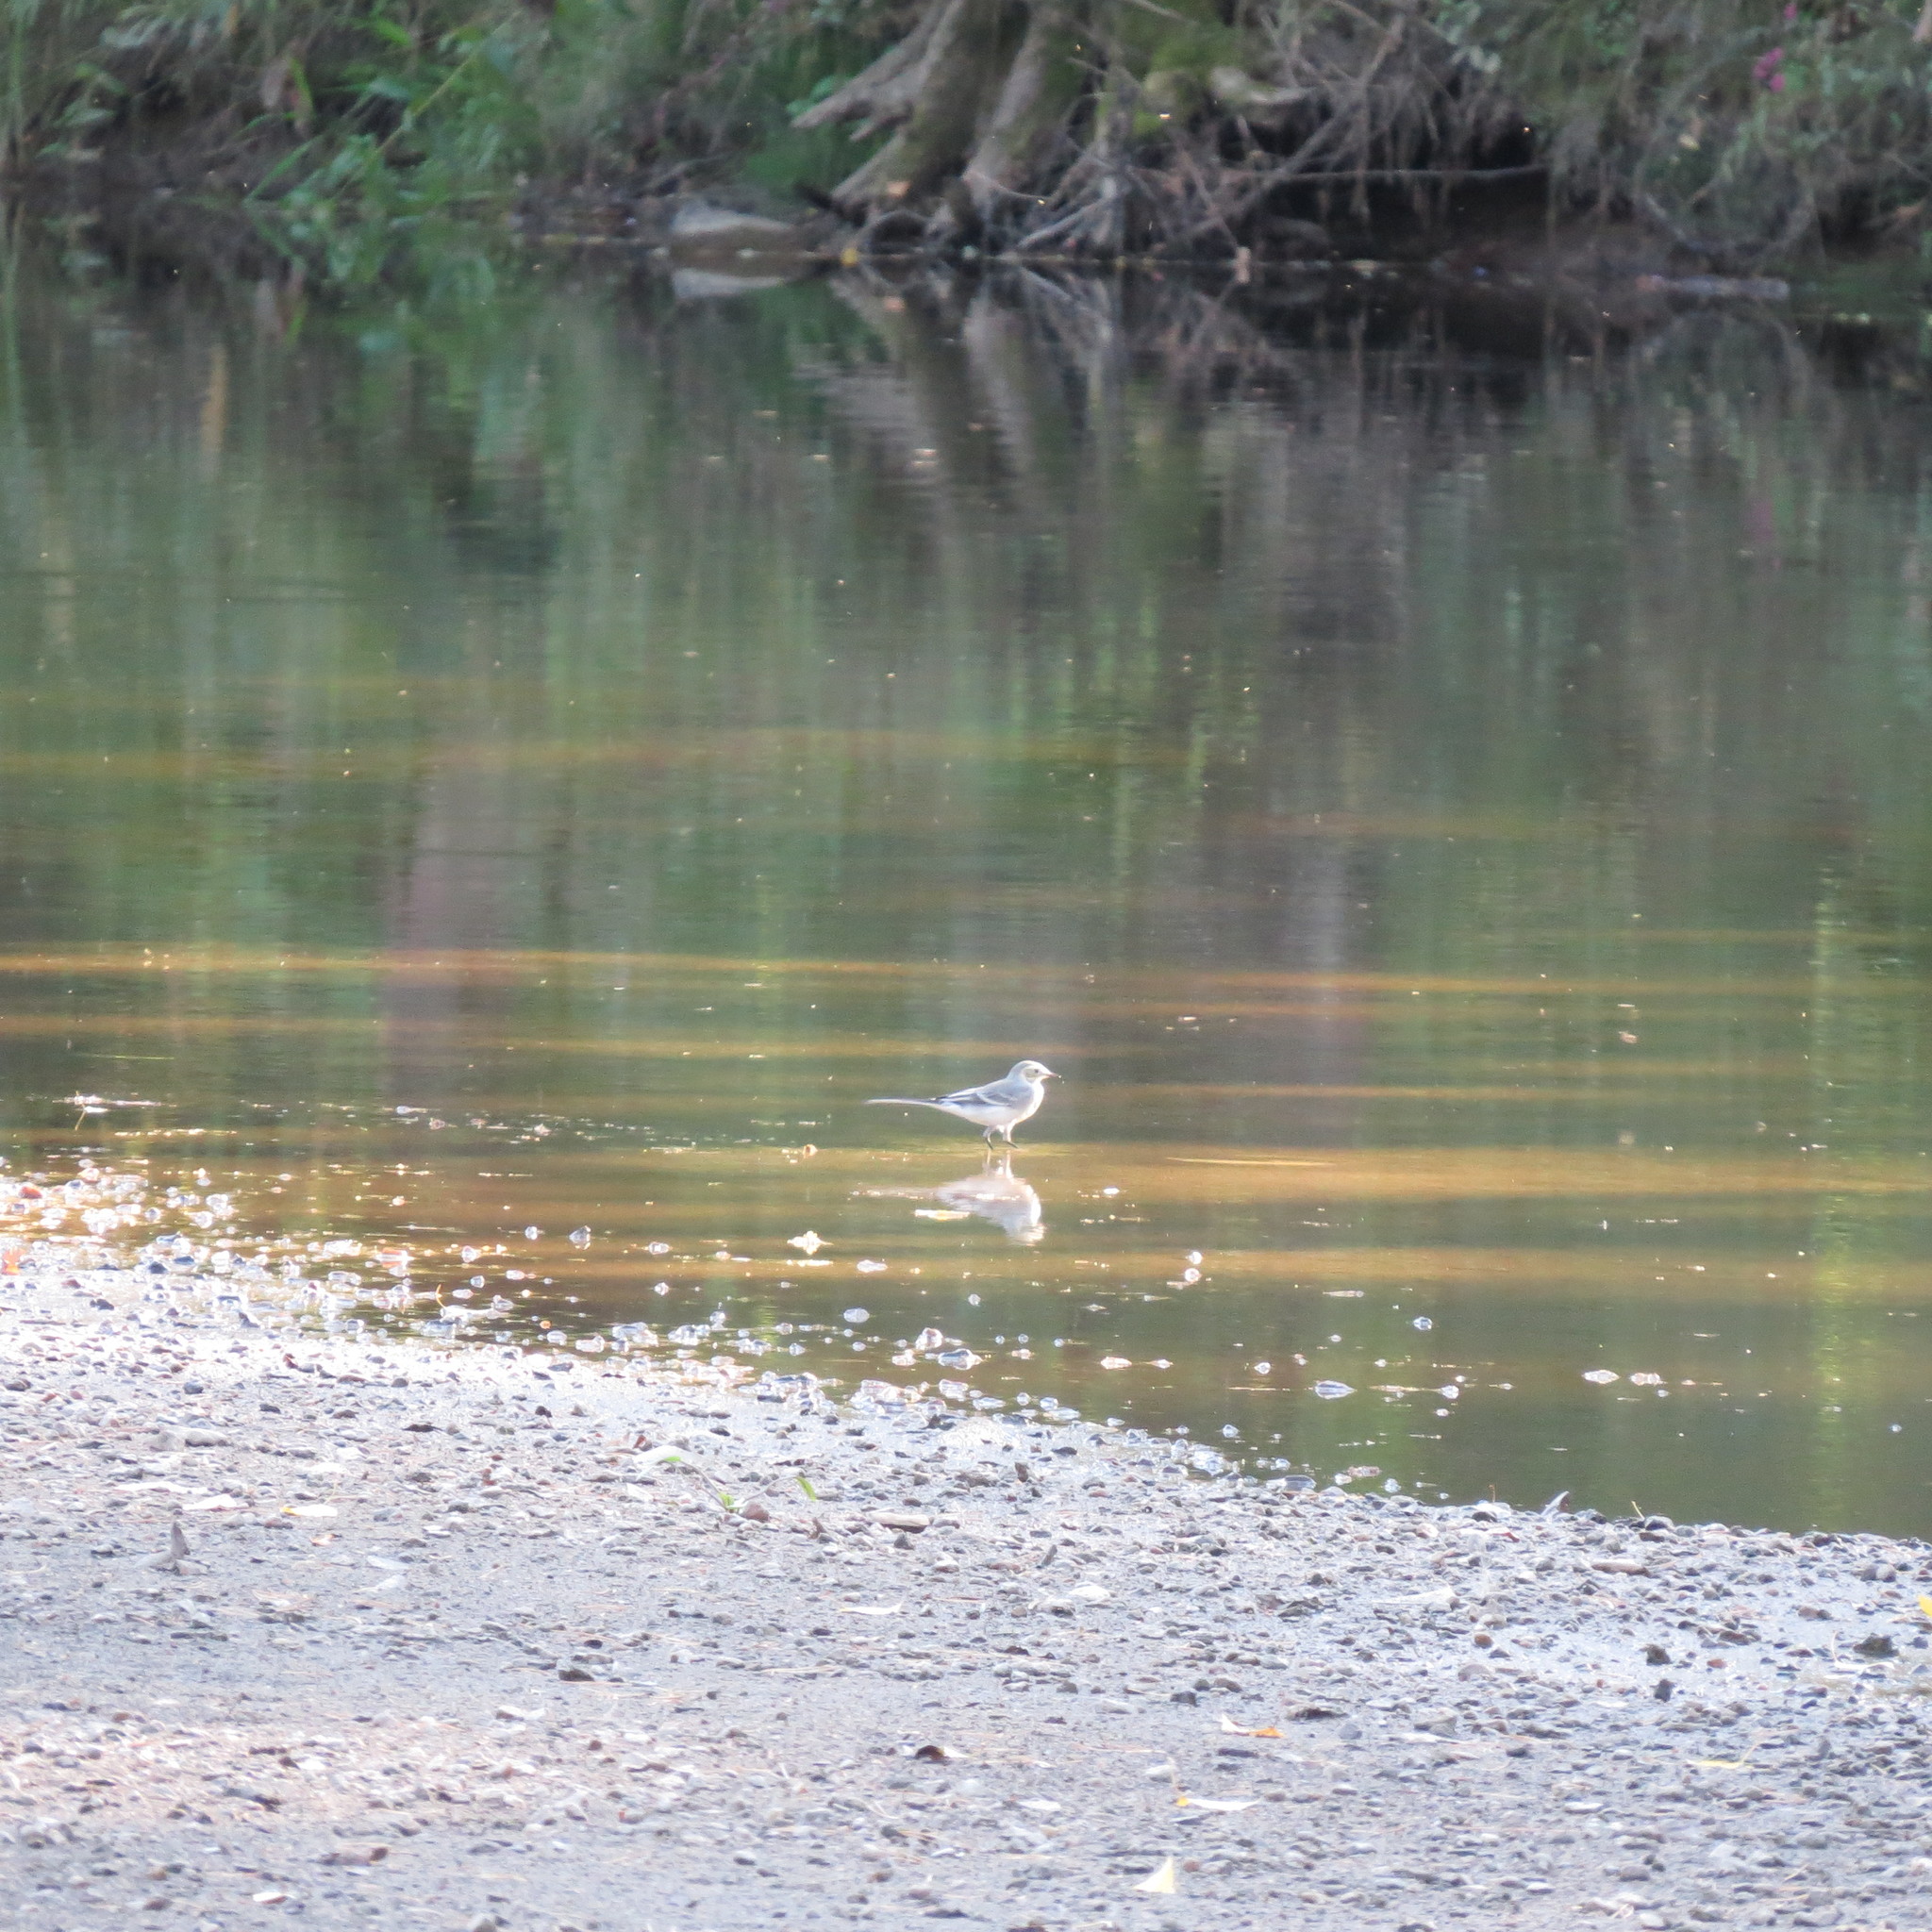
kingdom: Animalia
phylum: Chordata
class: Aves
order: Passeriformes
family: Motacillidae
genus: Motacilla
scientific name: Motacilla alba
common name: White wagtail
